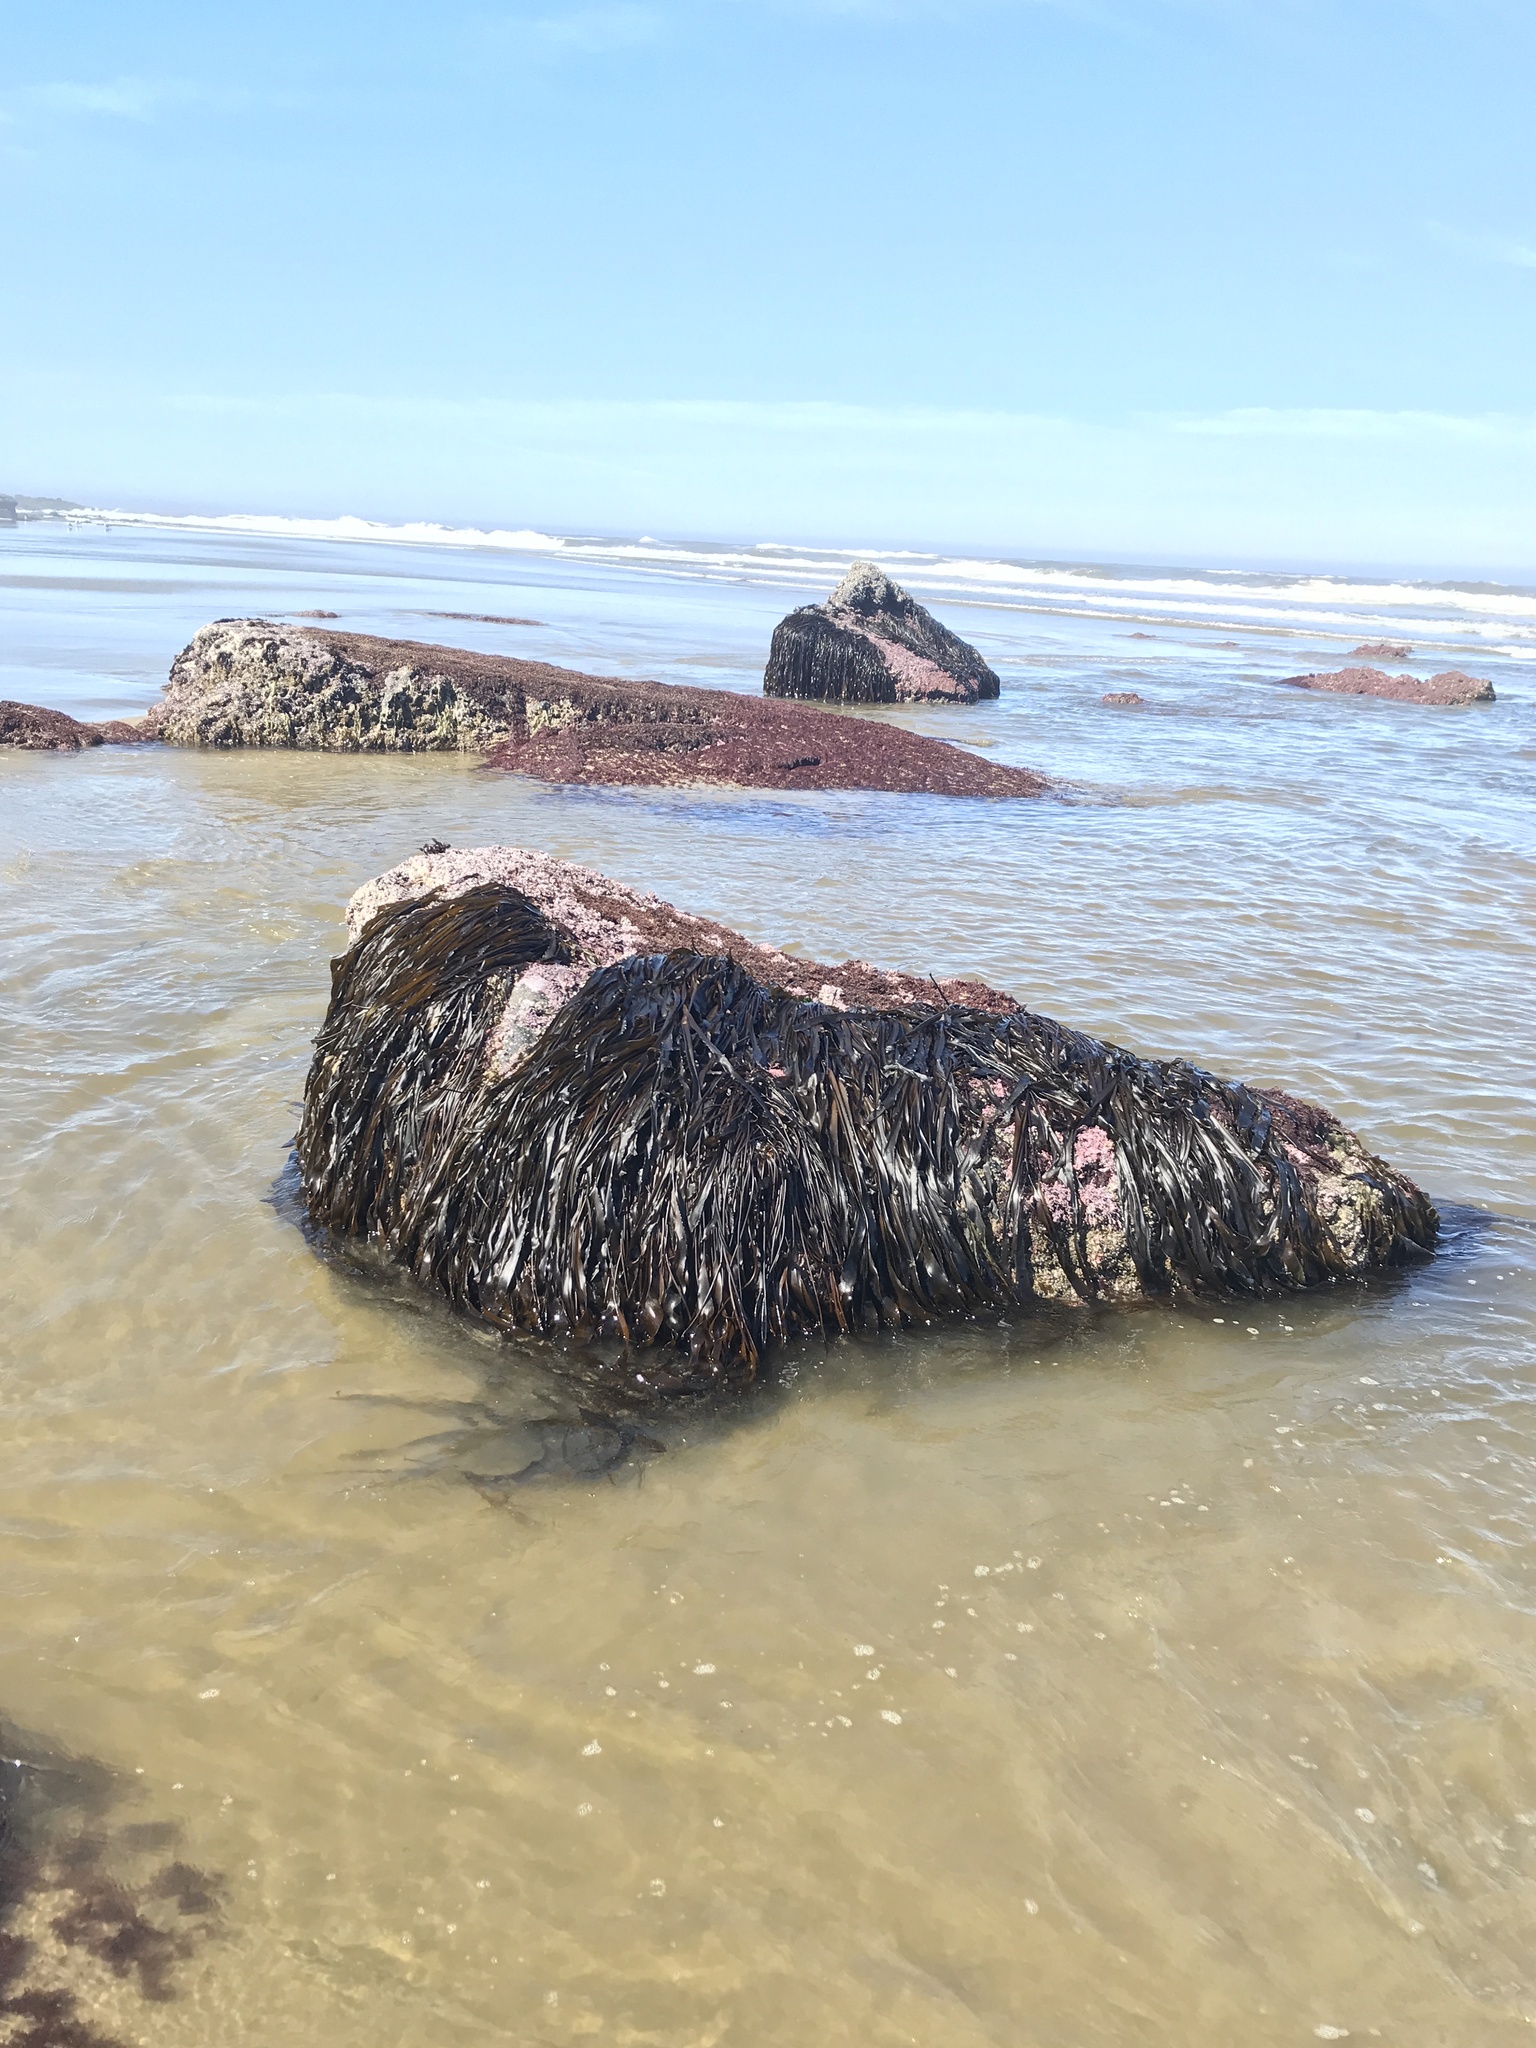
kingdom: Chromista
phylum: Ochrophyta
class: Phaeophyceae
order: Laminariales
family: Laminariaceae
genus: Laminaria
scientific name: Laminaria sinclairii
